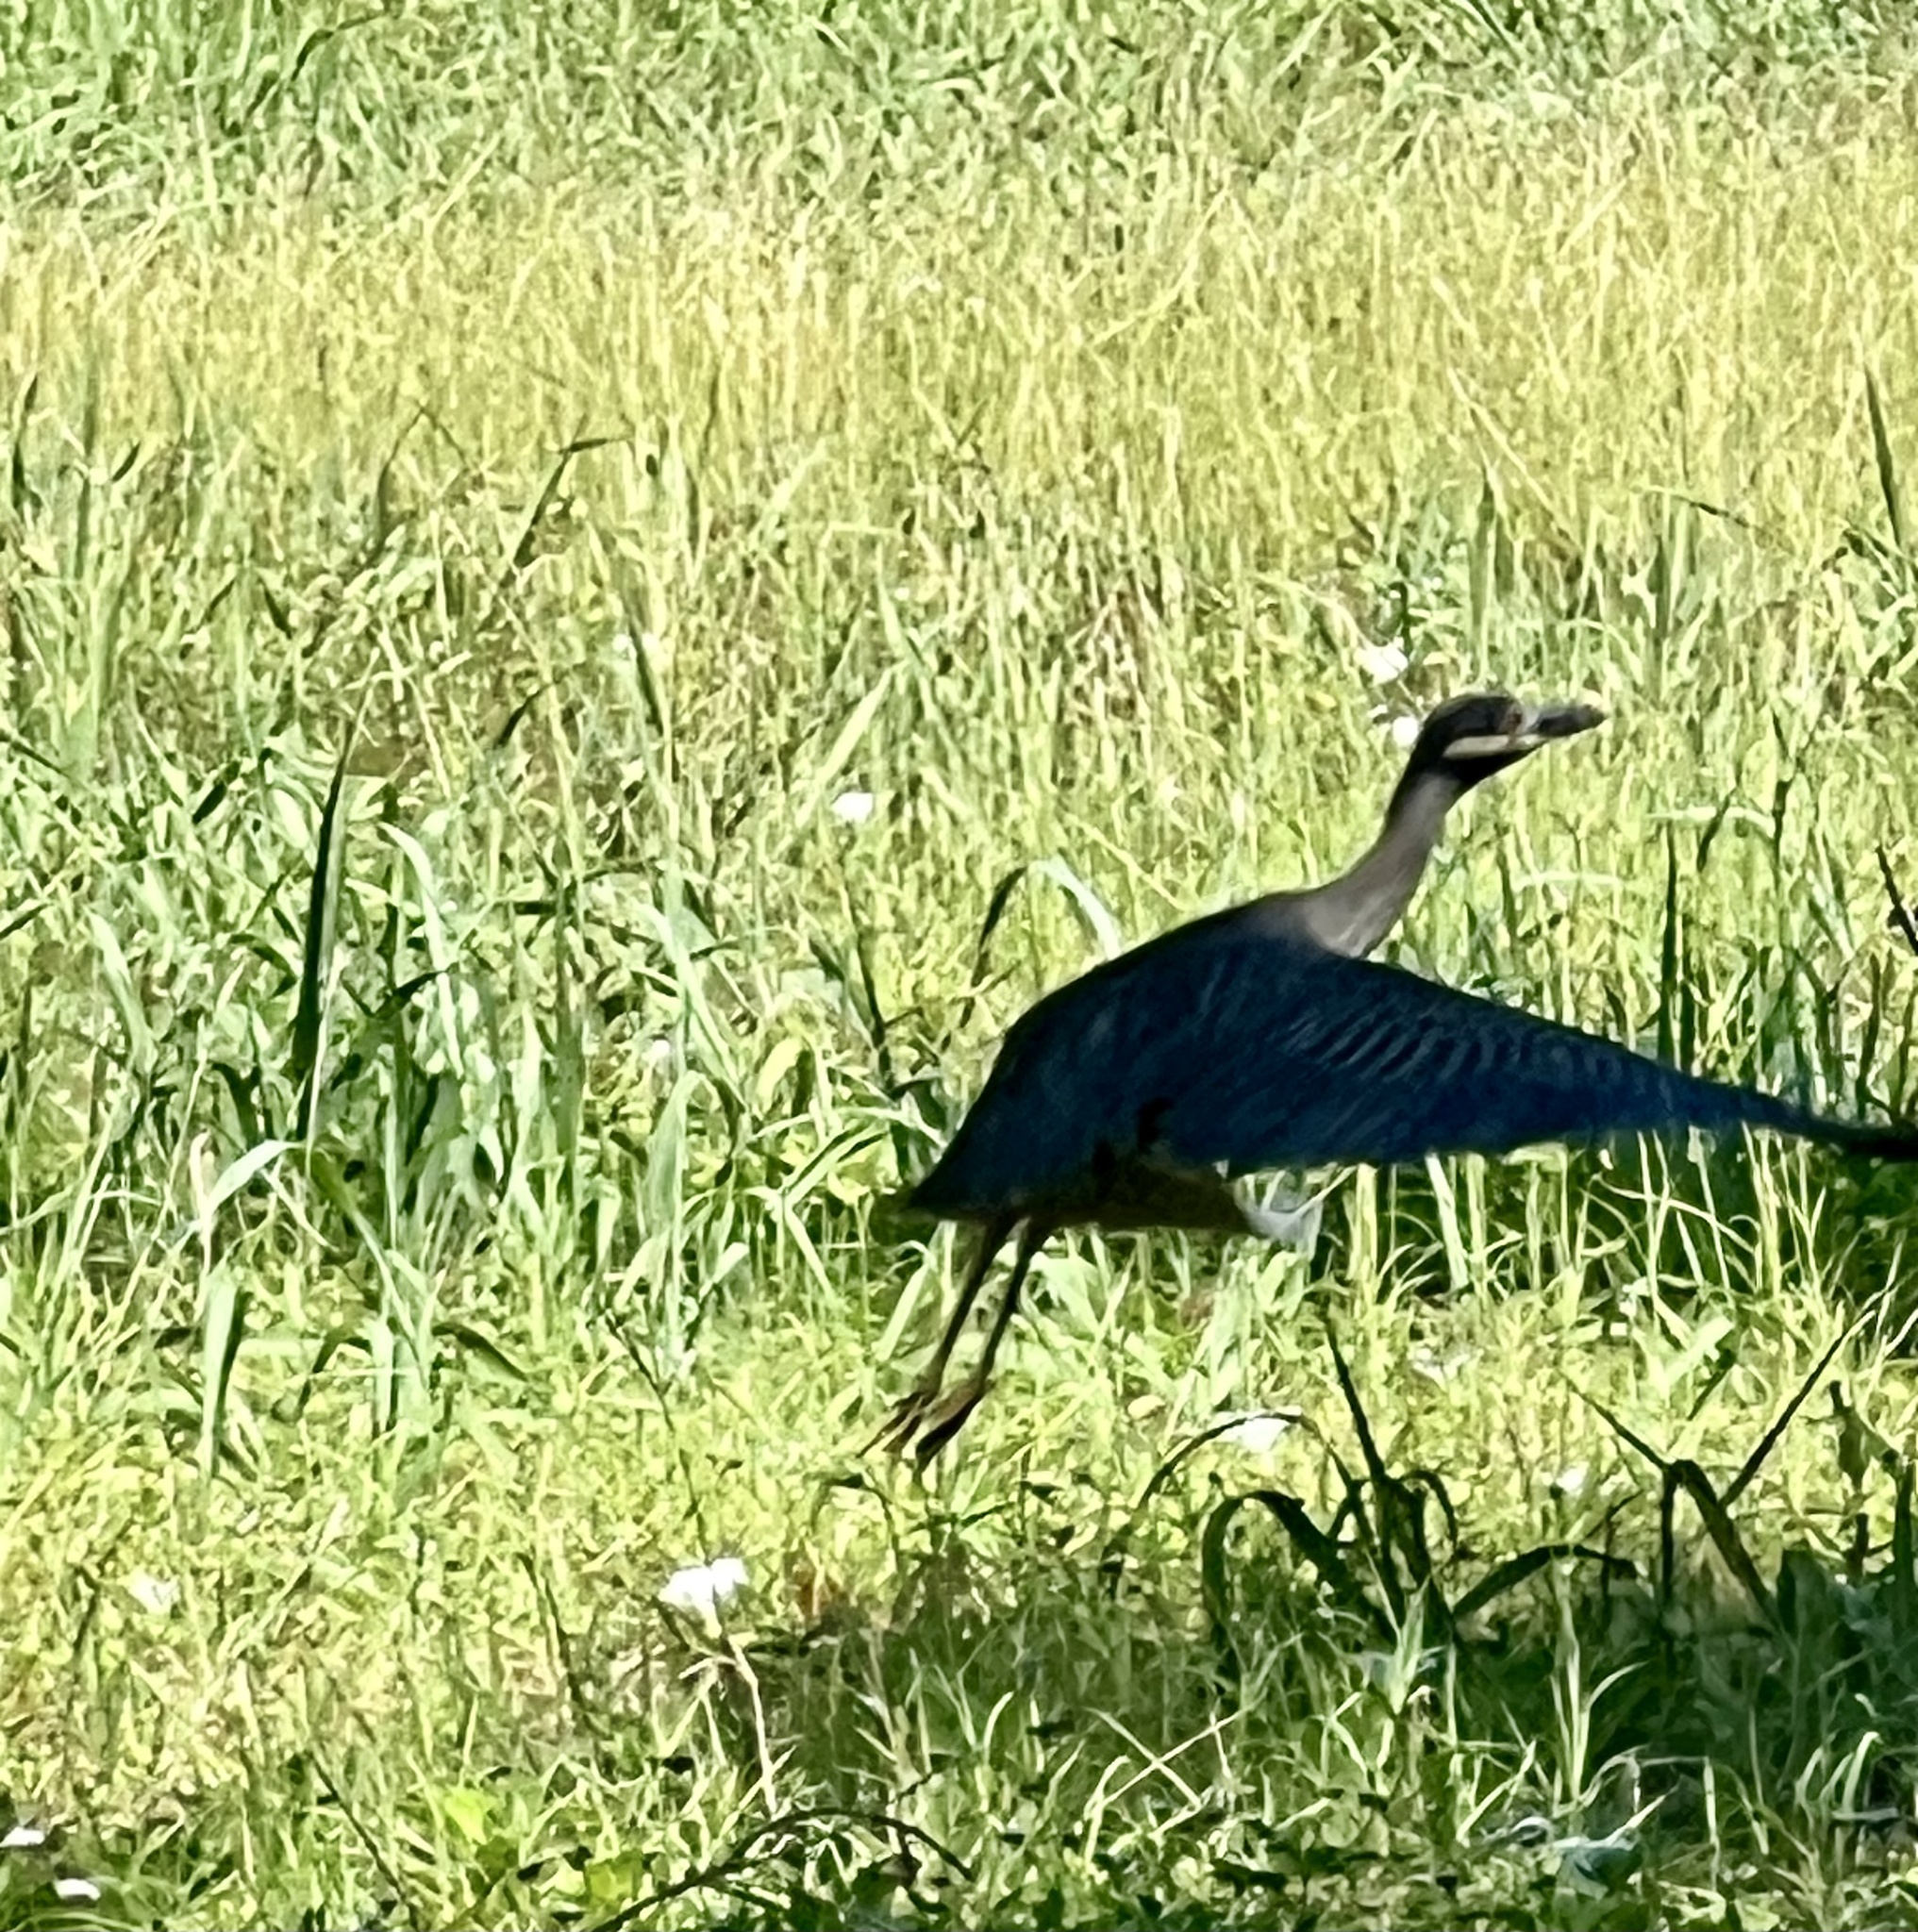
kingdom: Animalia
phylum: Chordata
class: Aves
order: Pelecaniformes
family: Ardeidae
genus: Nyctanassa
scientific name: Nyctanassa violacea
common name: Yellow-crowned night heron
